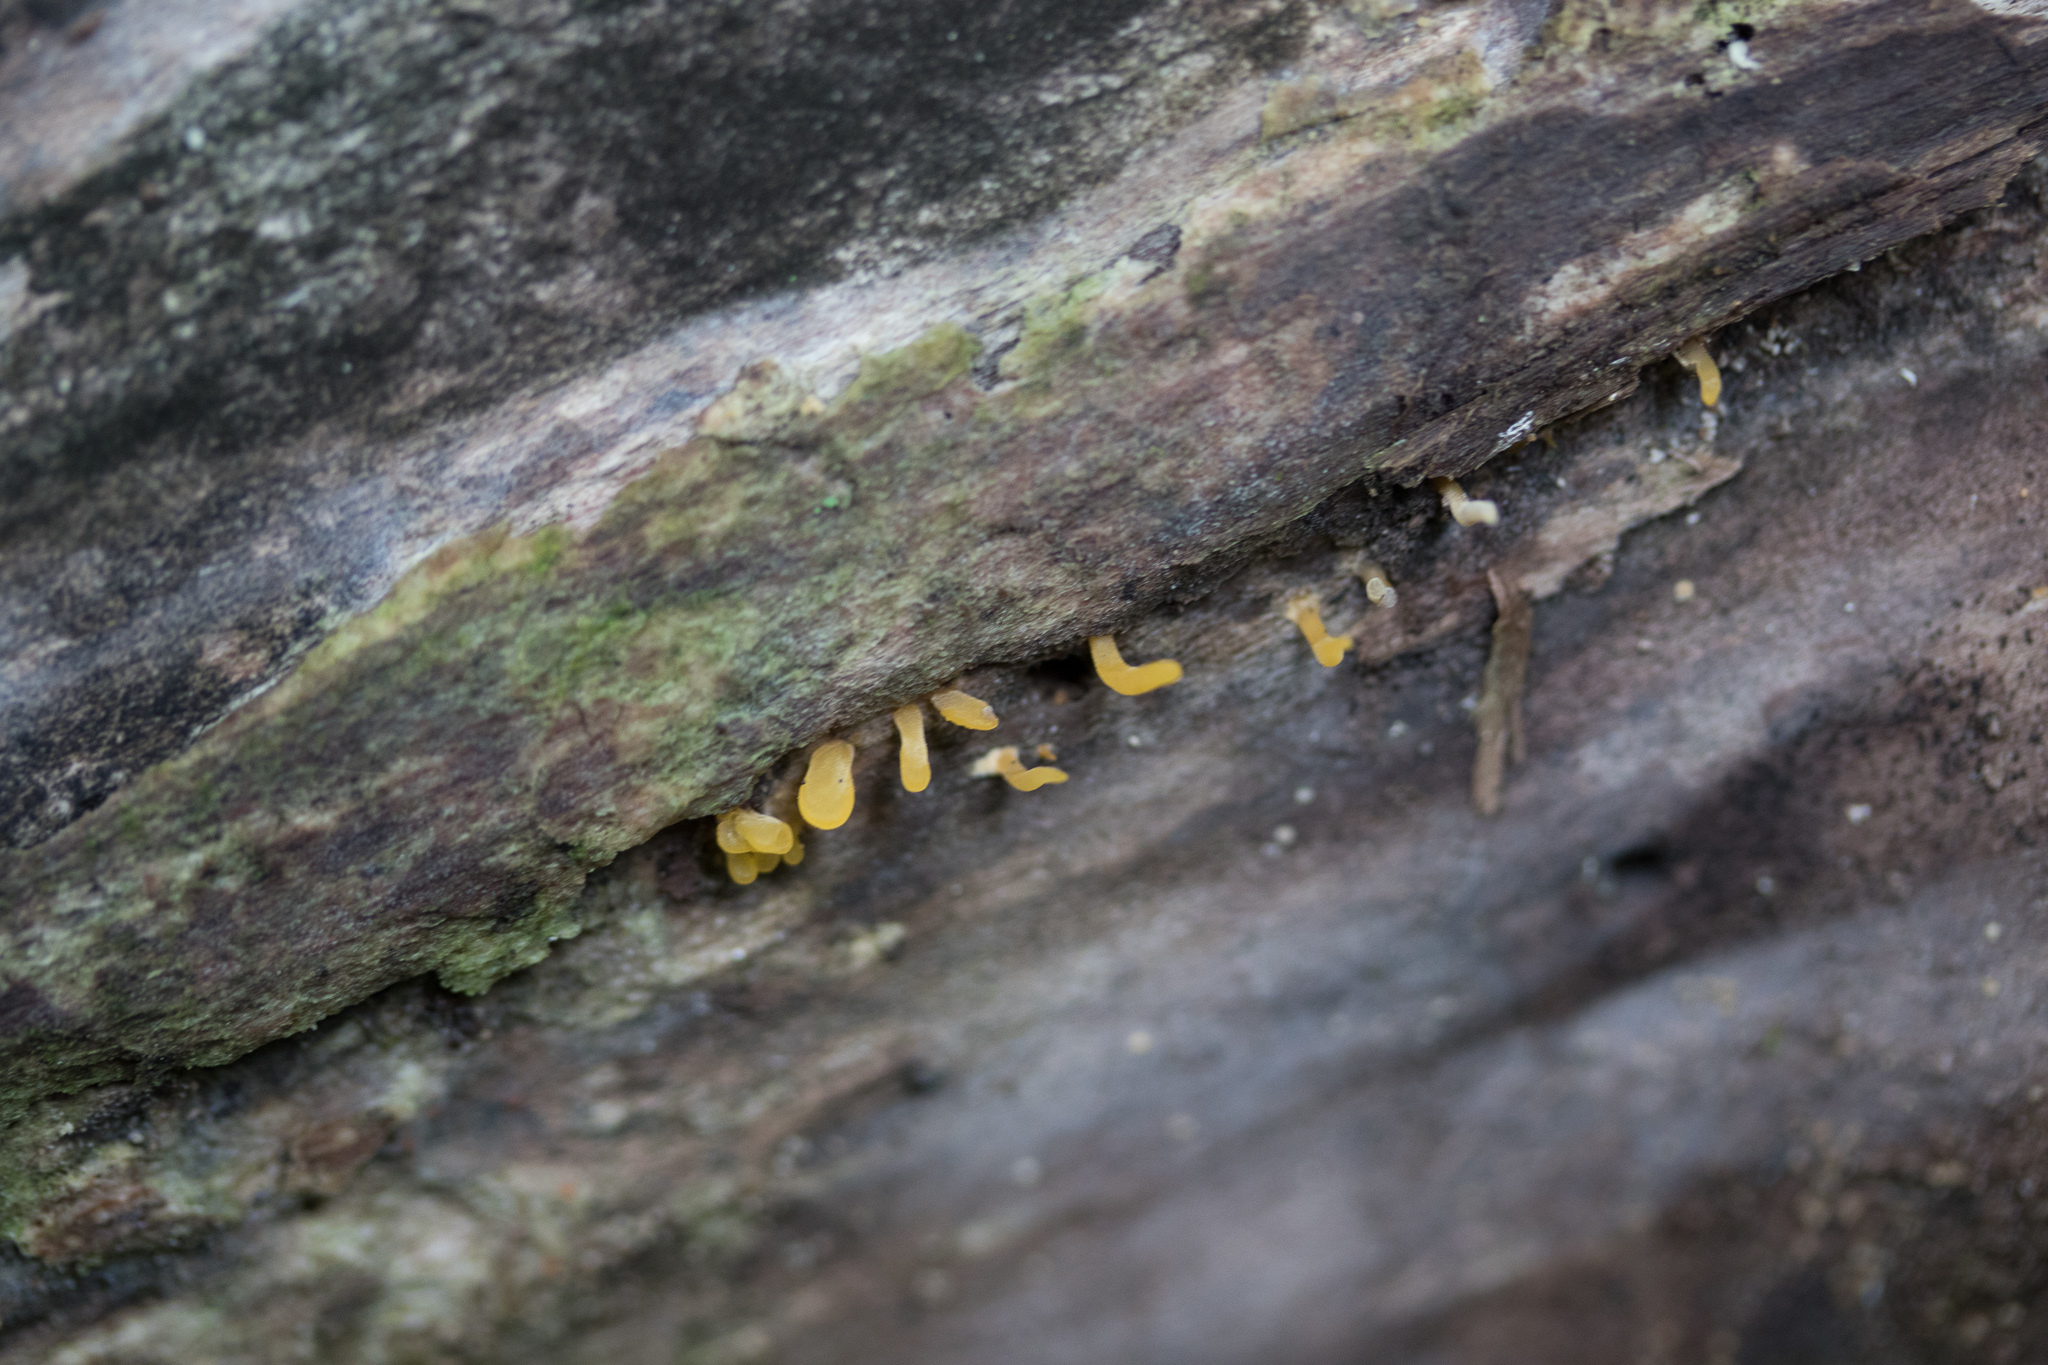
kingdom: Fungi
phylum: Basidiomycota
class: Dacrymycetes
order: Dacrymycetales
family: Dacrymycetaceae
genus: Calocera
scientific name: Calocera cornea
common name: Small stagshorn
